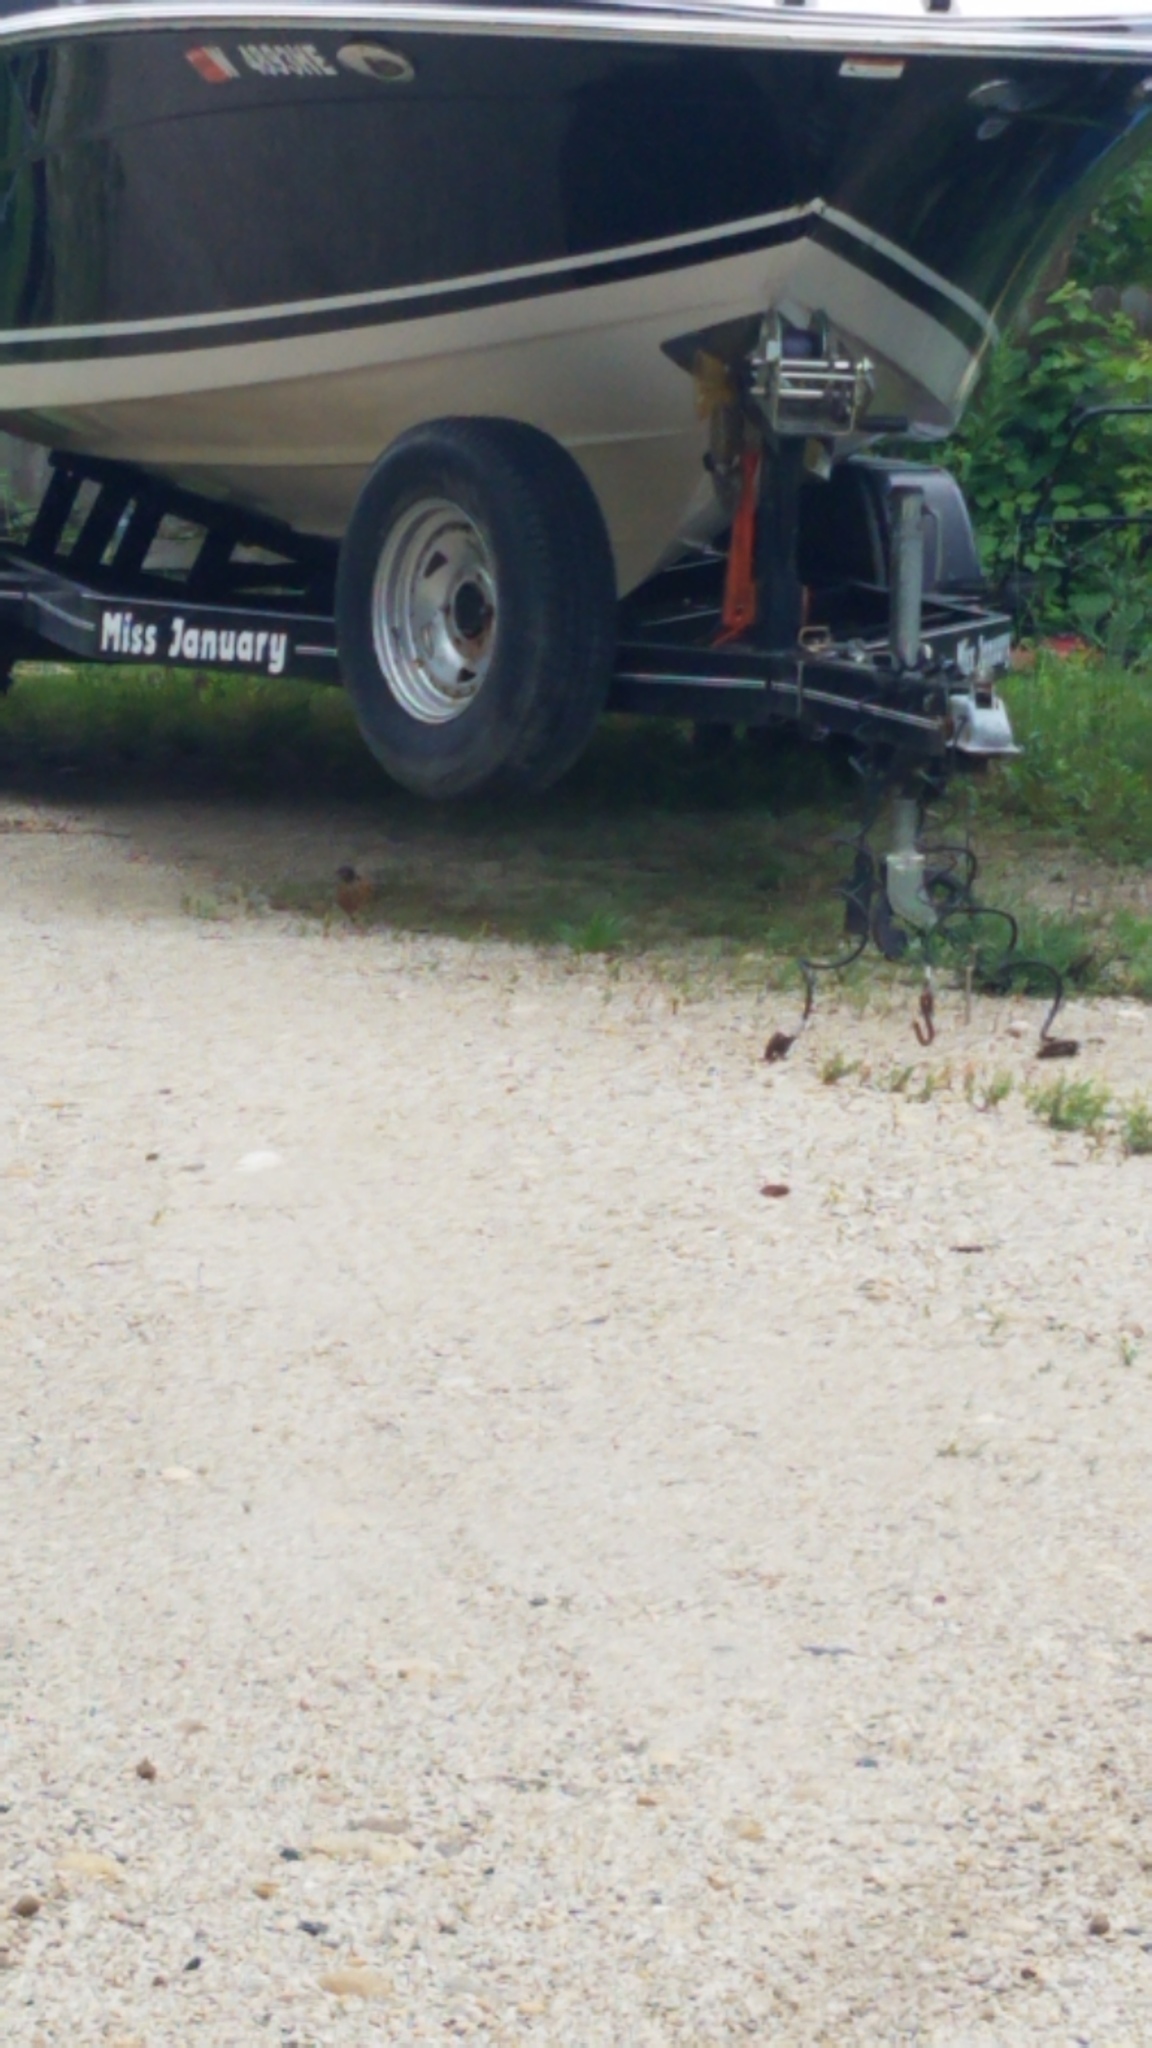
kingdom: Animalia
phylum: Chordata
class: Aves
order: Passeriformes
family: Turdidae
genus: Turdus
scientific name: Turdus migratorius
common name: American robin
